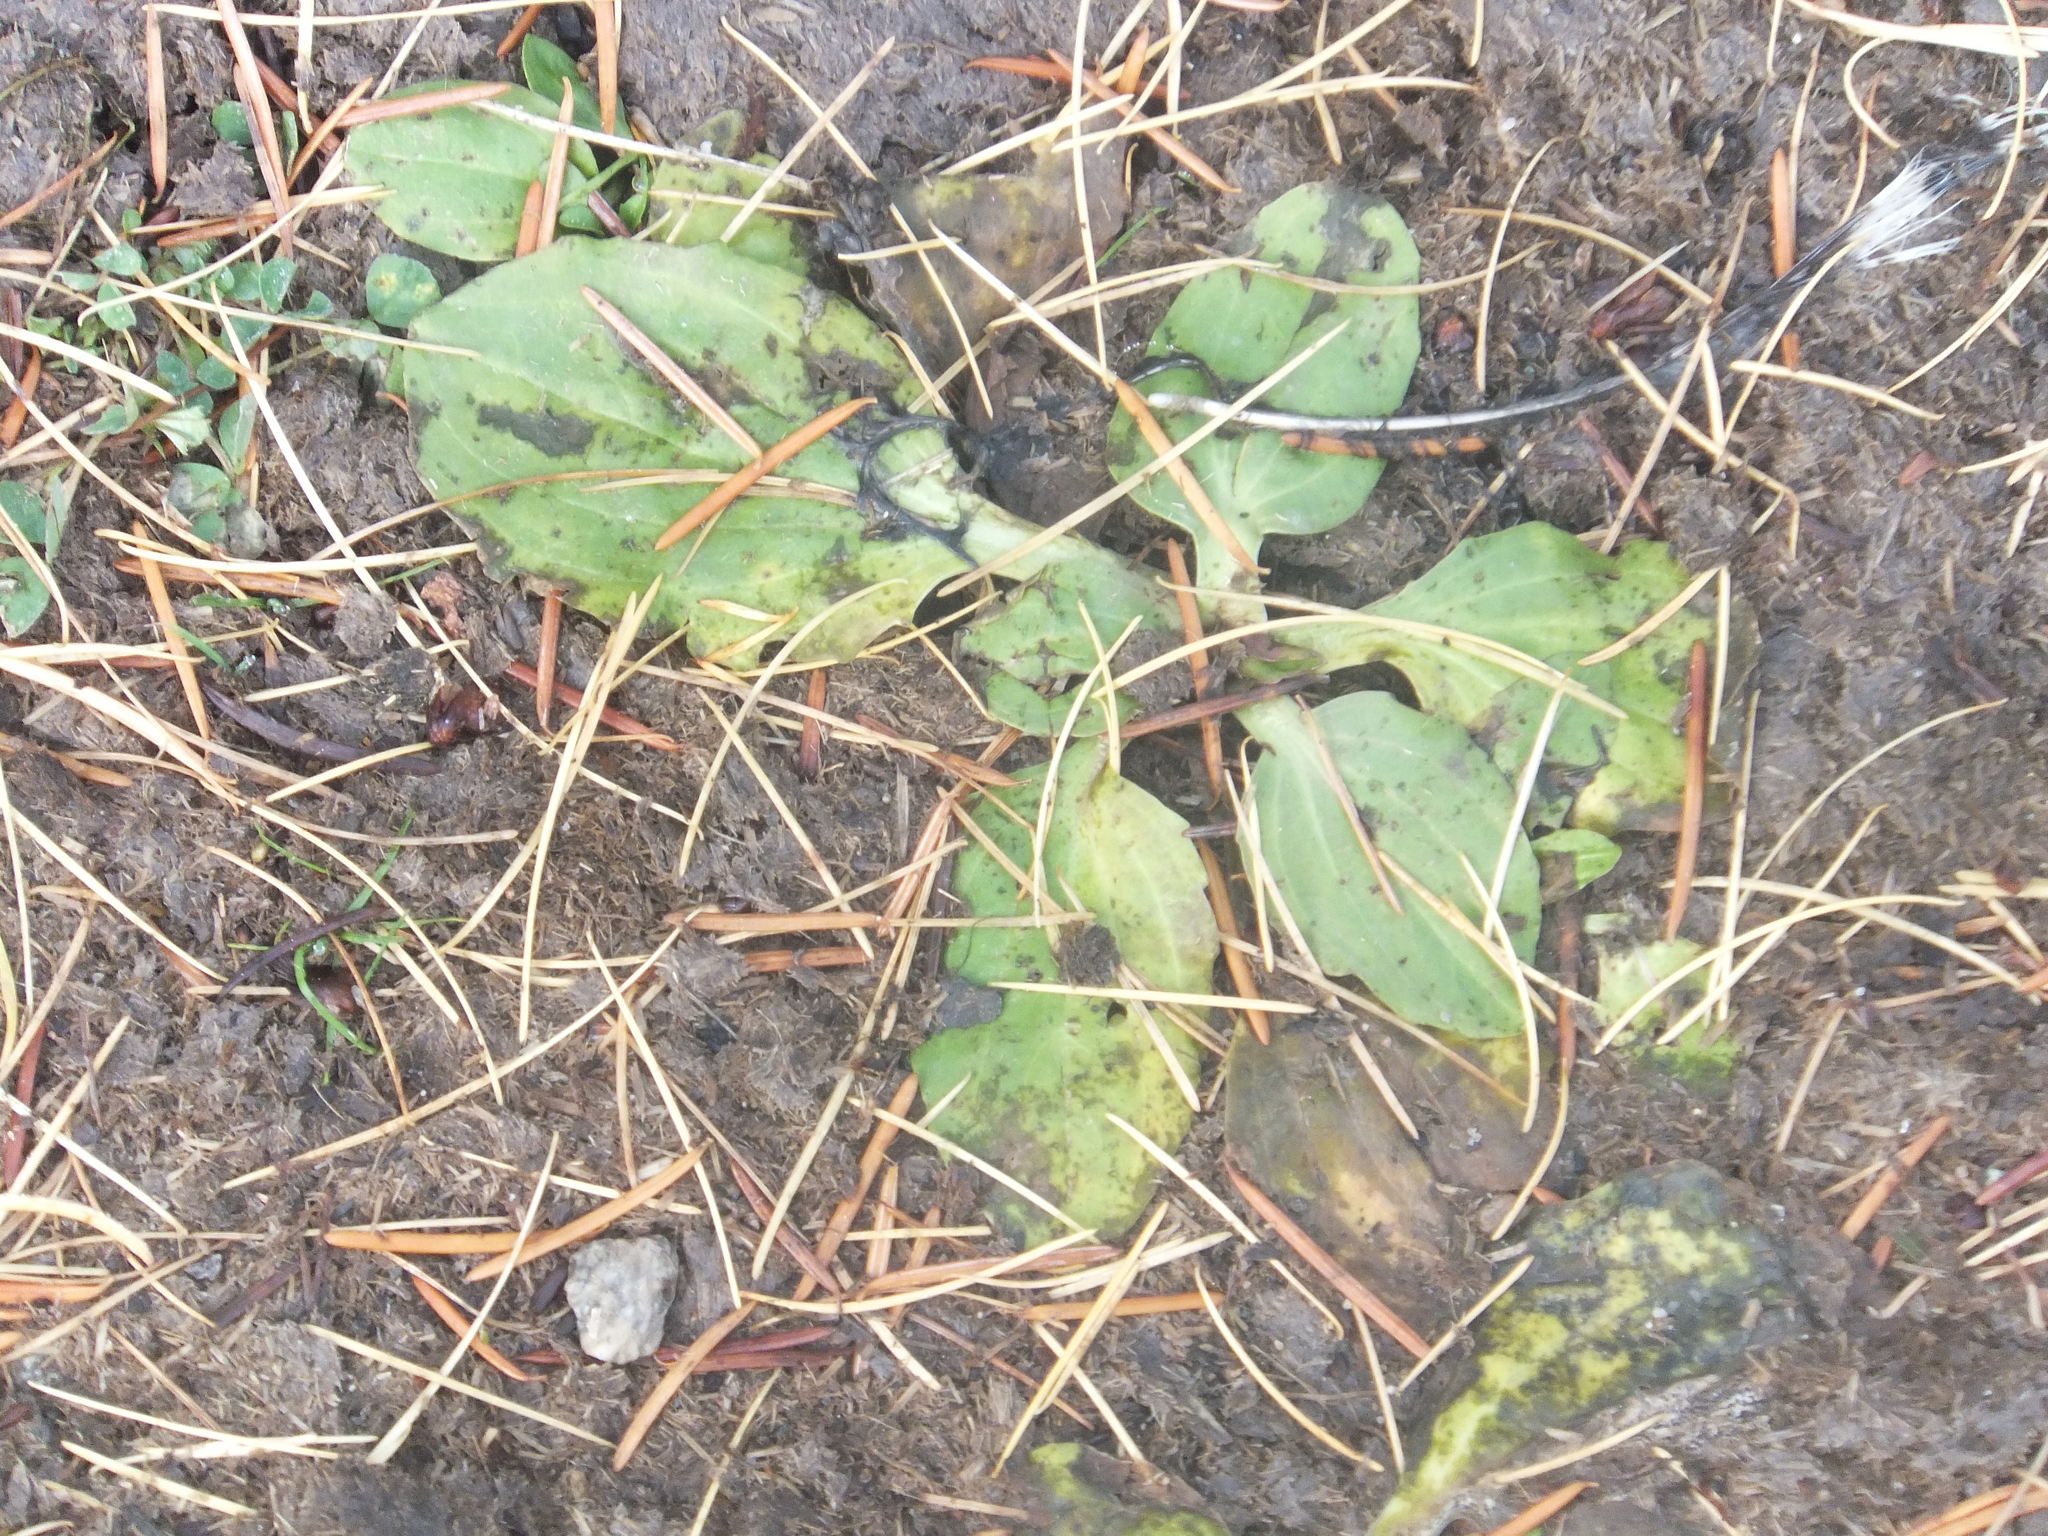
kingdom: Plantae
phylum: Tracheophyta
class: Magnoliopsida
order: Lamiales
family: Plantaginaceae
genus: Plantago
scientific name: Plantago major
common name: Common plantain
